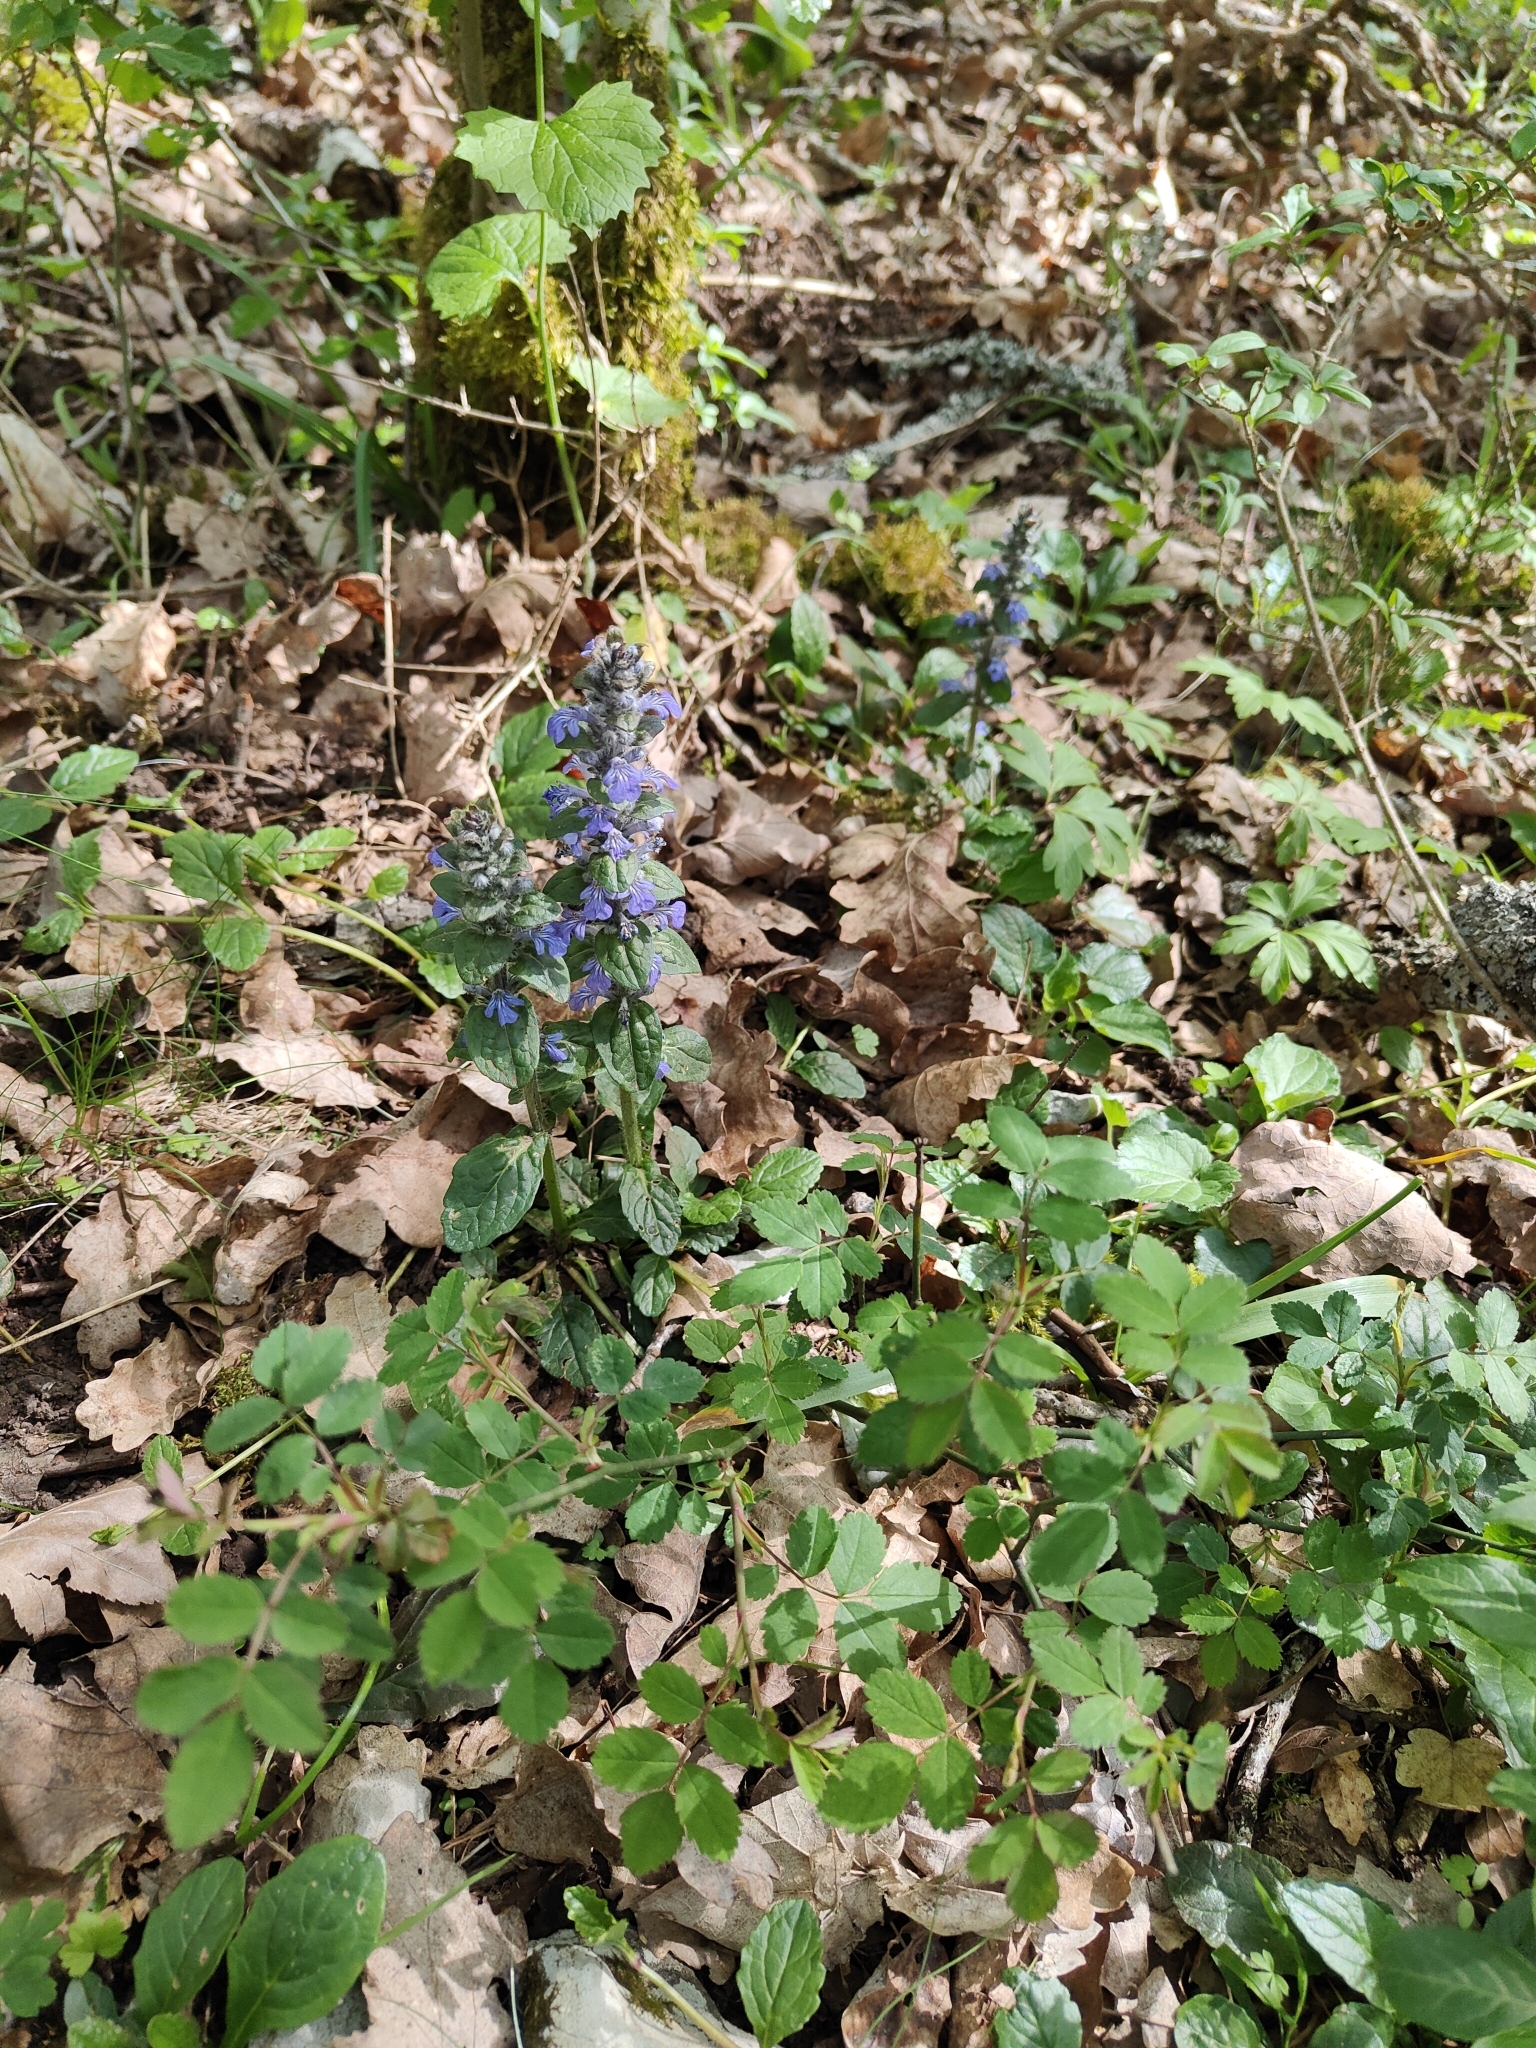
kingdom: Plantae
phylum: Tracheophyta
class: Magnoliopsida
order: Lamiales
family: Lamiaceae
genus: Ajuga
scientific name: Ajuga reptans
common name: Bugle
